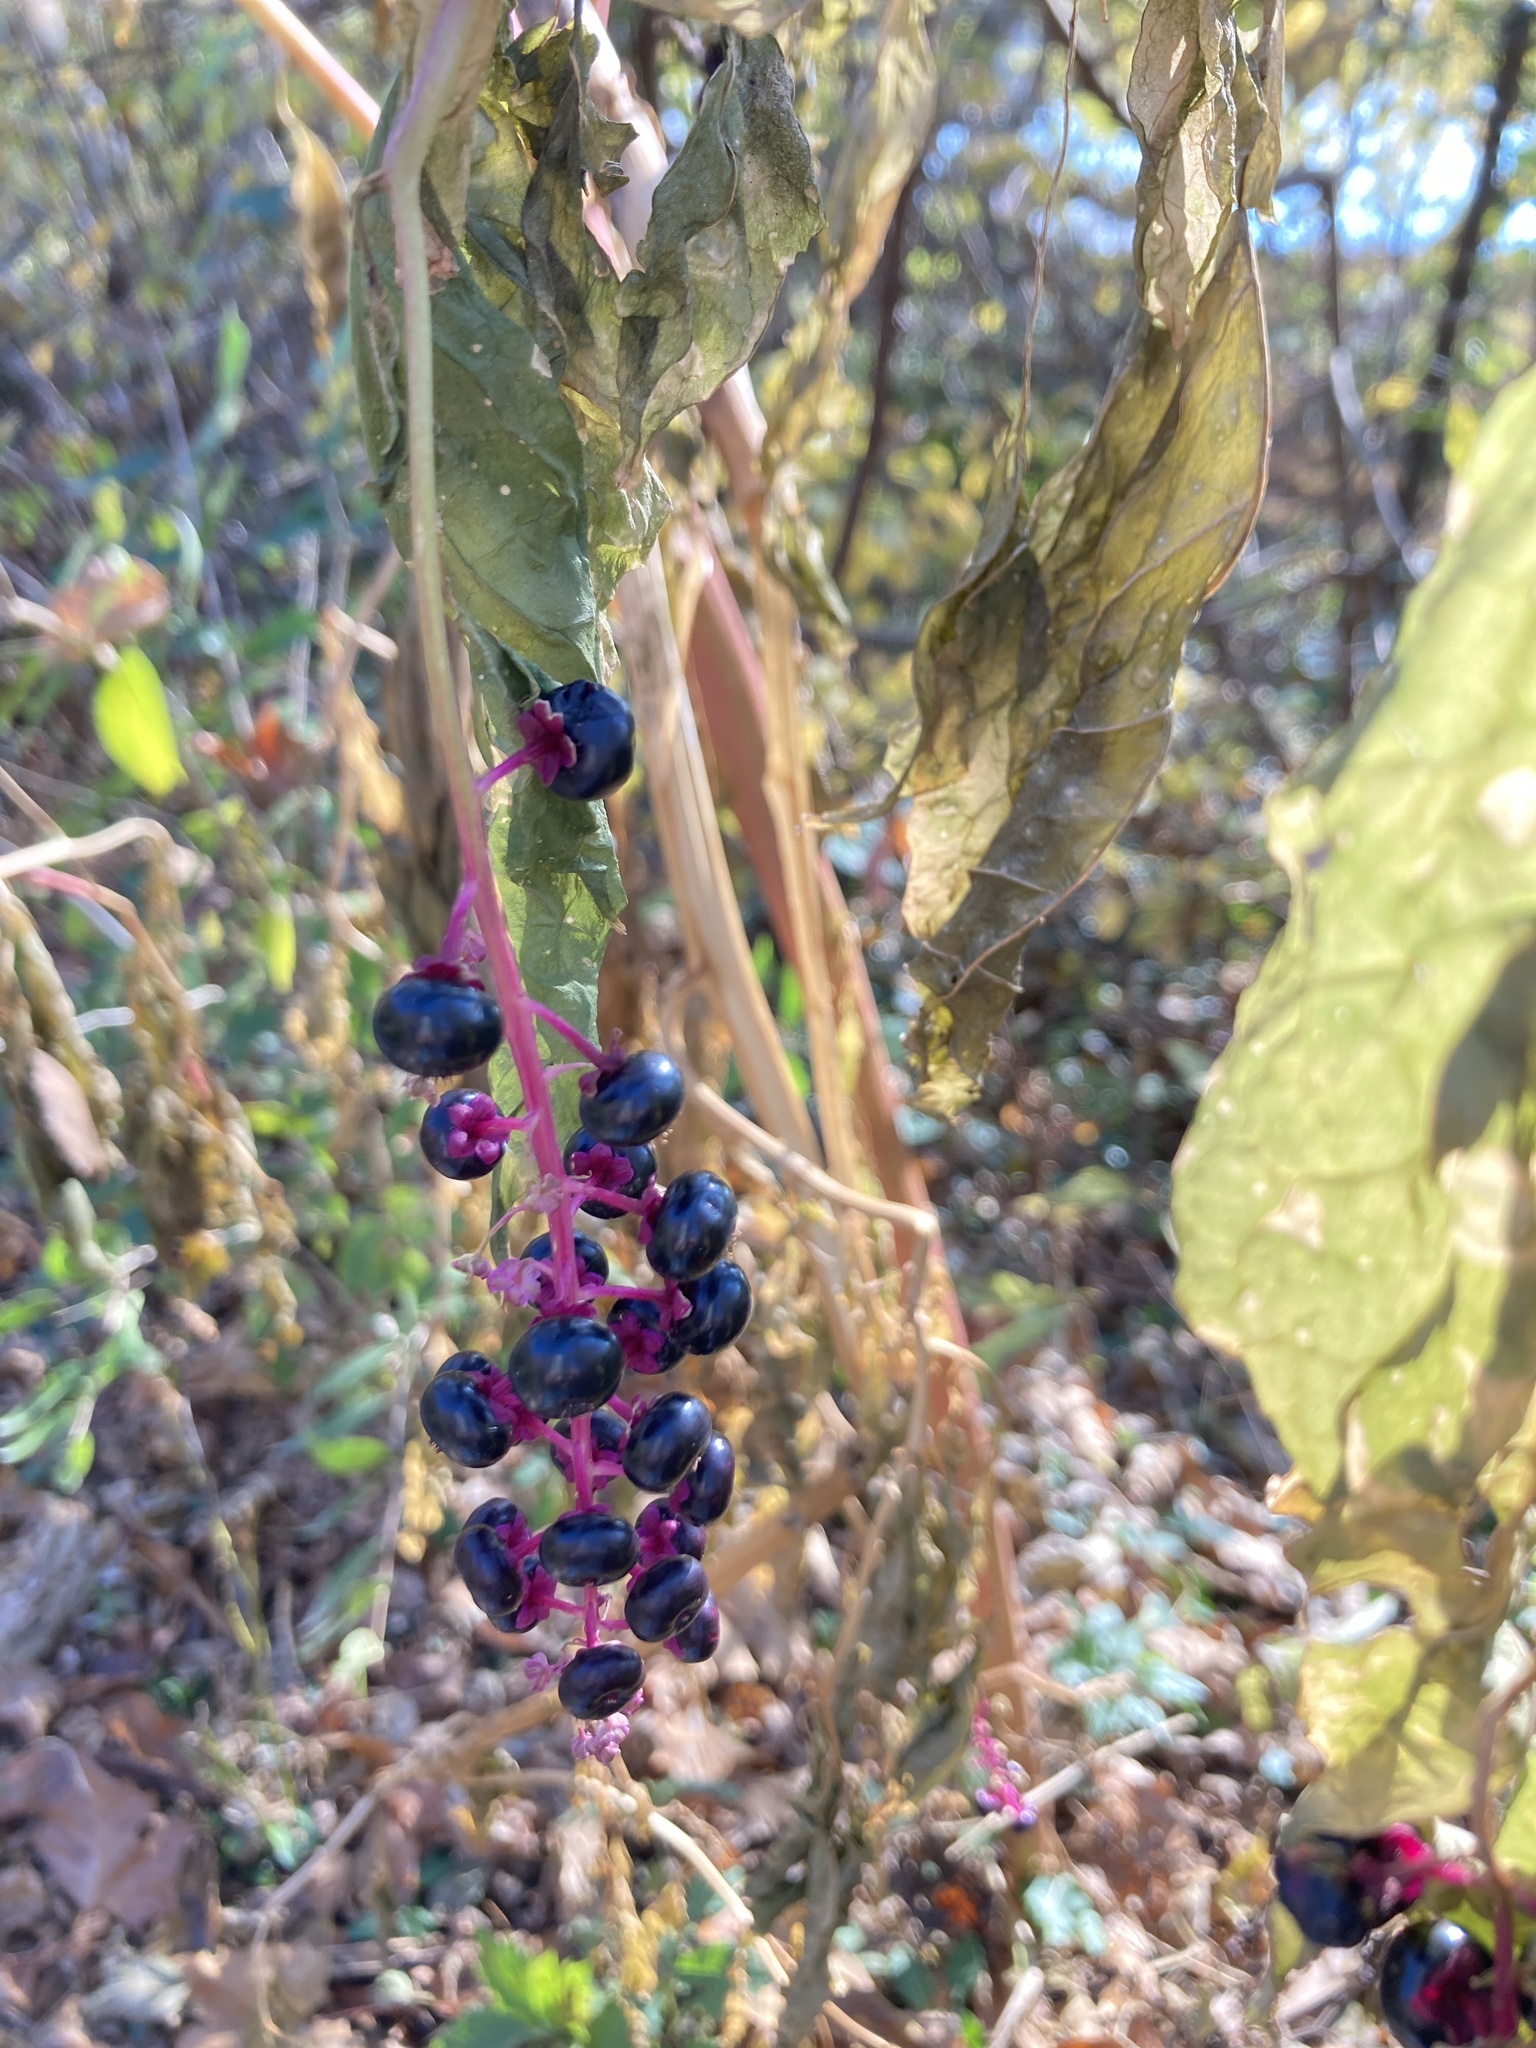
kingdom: Plantae
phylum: Tracheophyta
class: Magnoliopsida
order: Caryophyllales
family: Phytolaccaceae
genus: Phytolacca
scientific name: Phytolacca americana
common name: American pokeweed
